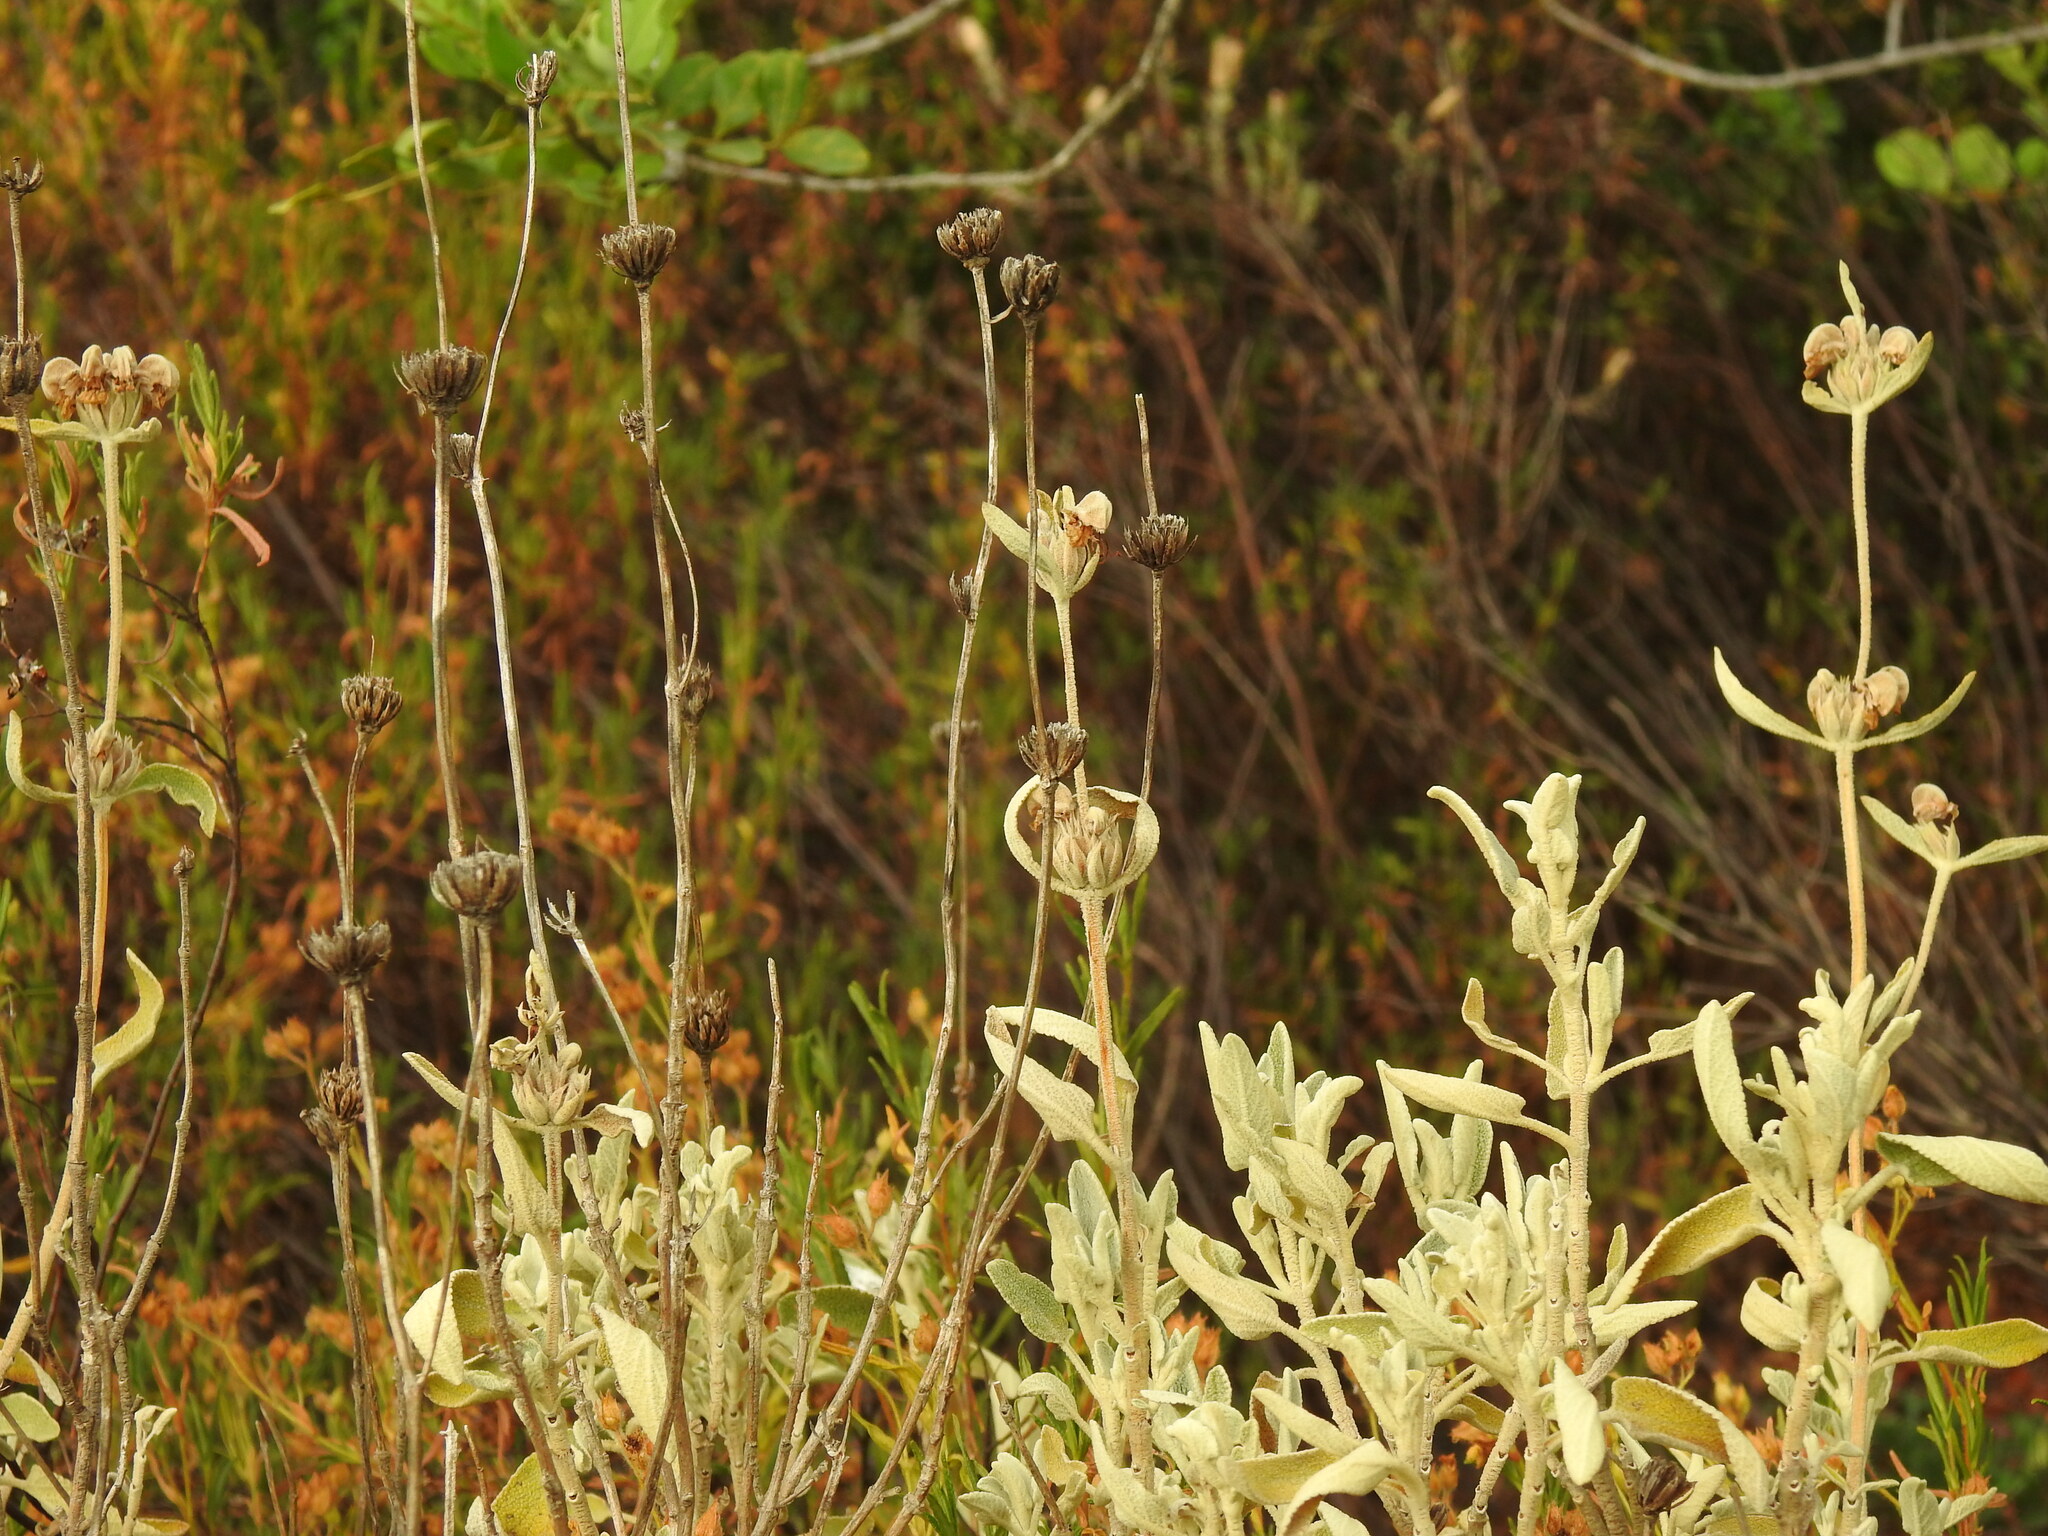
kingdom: Plantae
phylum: Tracheophyta
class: Magnoliopsida
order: Lamiales
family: Lamiaceae
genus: Phlomis
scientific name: Phlomis purpurea
